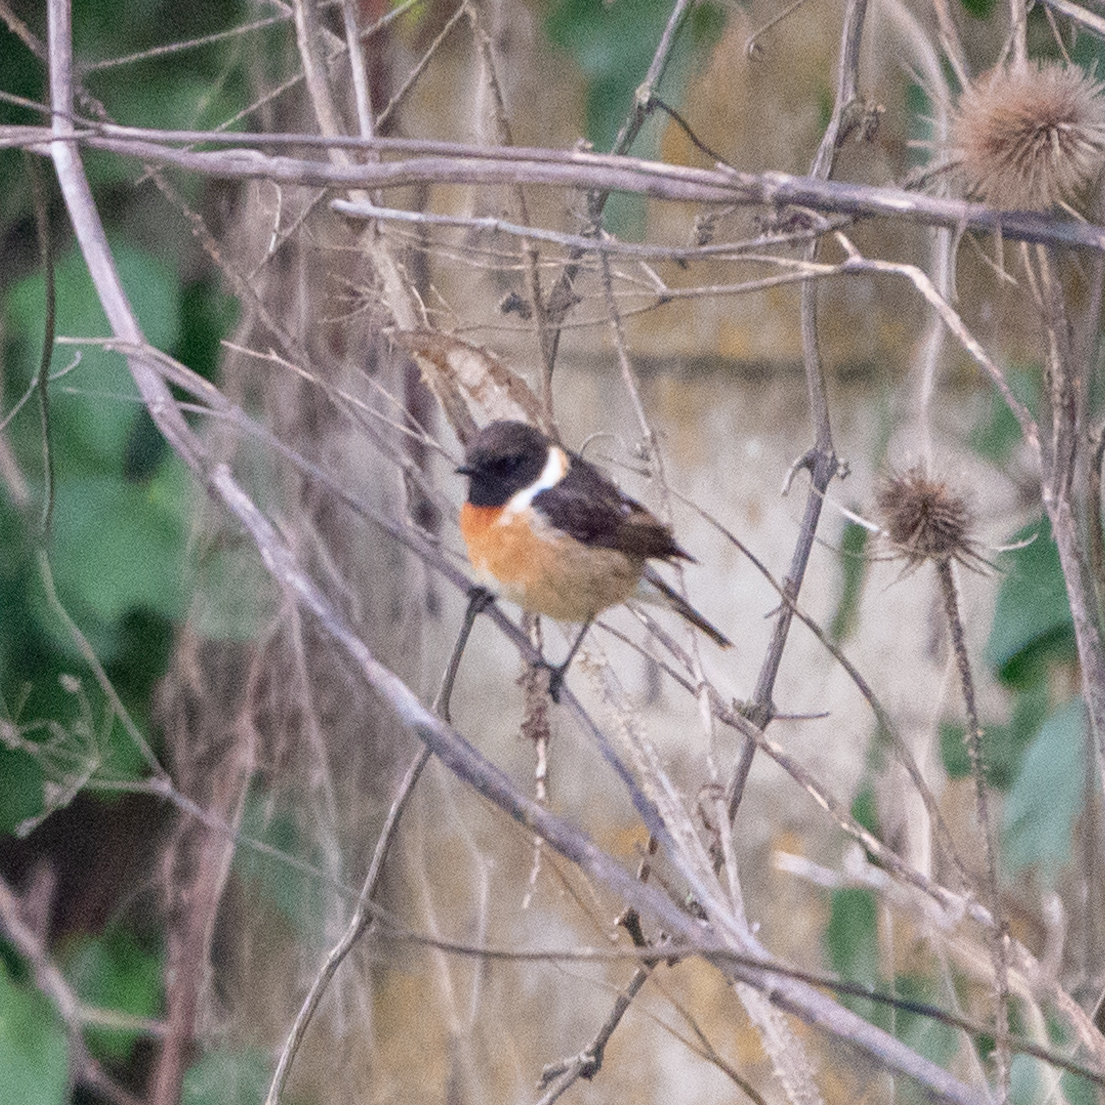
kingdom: Animalia
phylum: Chordata
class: Aves
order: Passeriformes
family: Muscicapidae
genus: Saxicola
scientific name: Saxicola rubicola
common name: European stonechat
